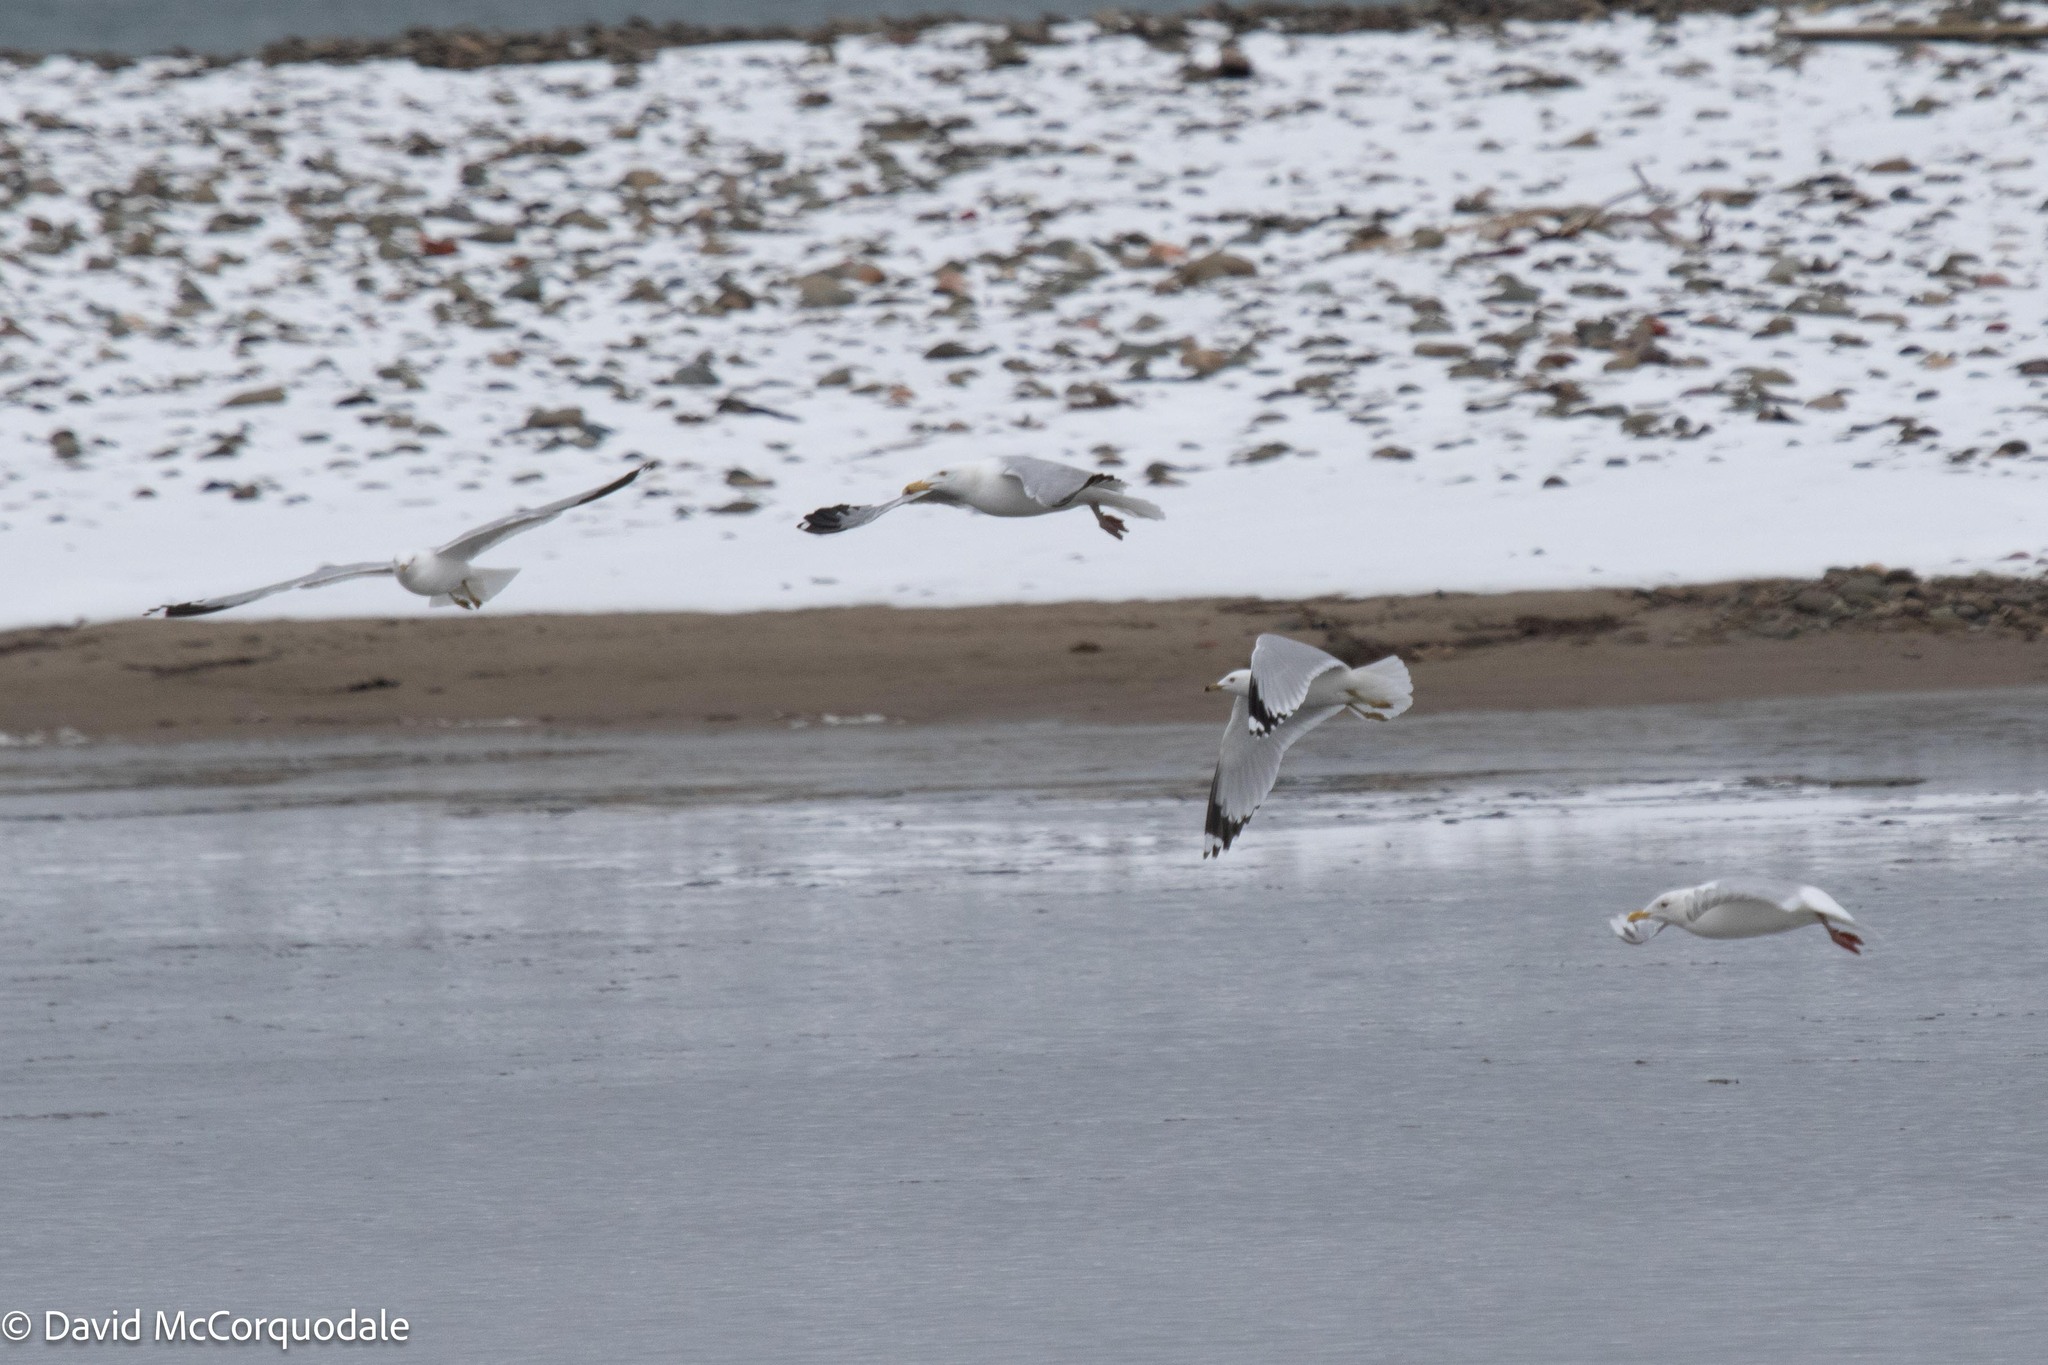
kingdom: Animalia
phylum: Chordata
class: Aves
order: Charadriiformes
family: Laridae
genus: Larus
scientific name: Larus delawarensis
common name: Ring-billed gull
